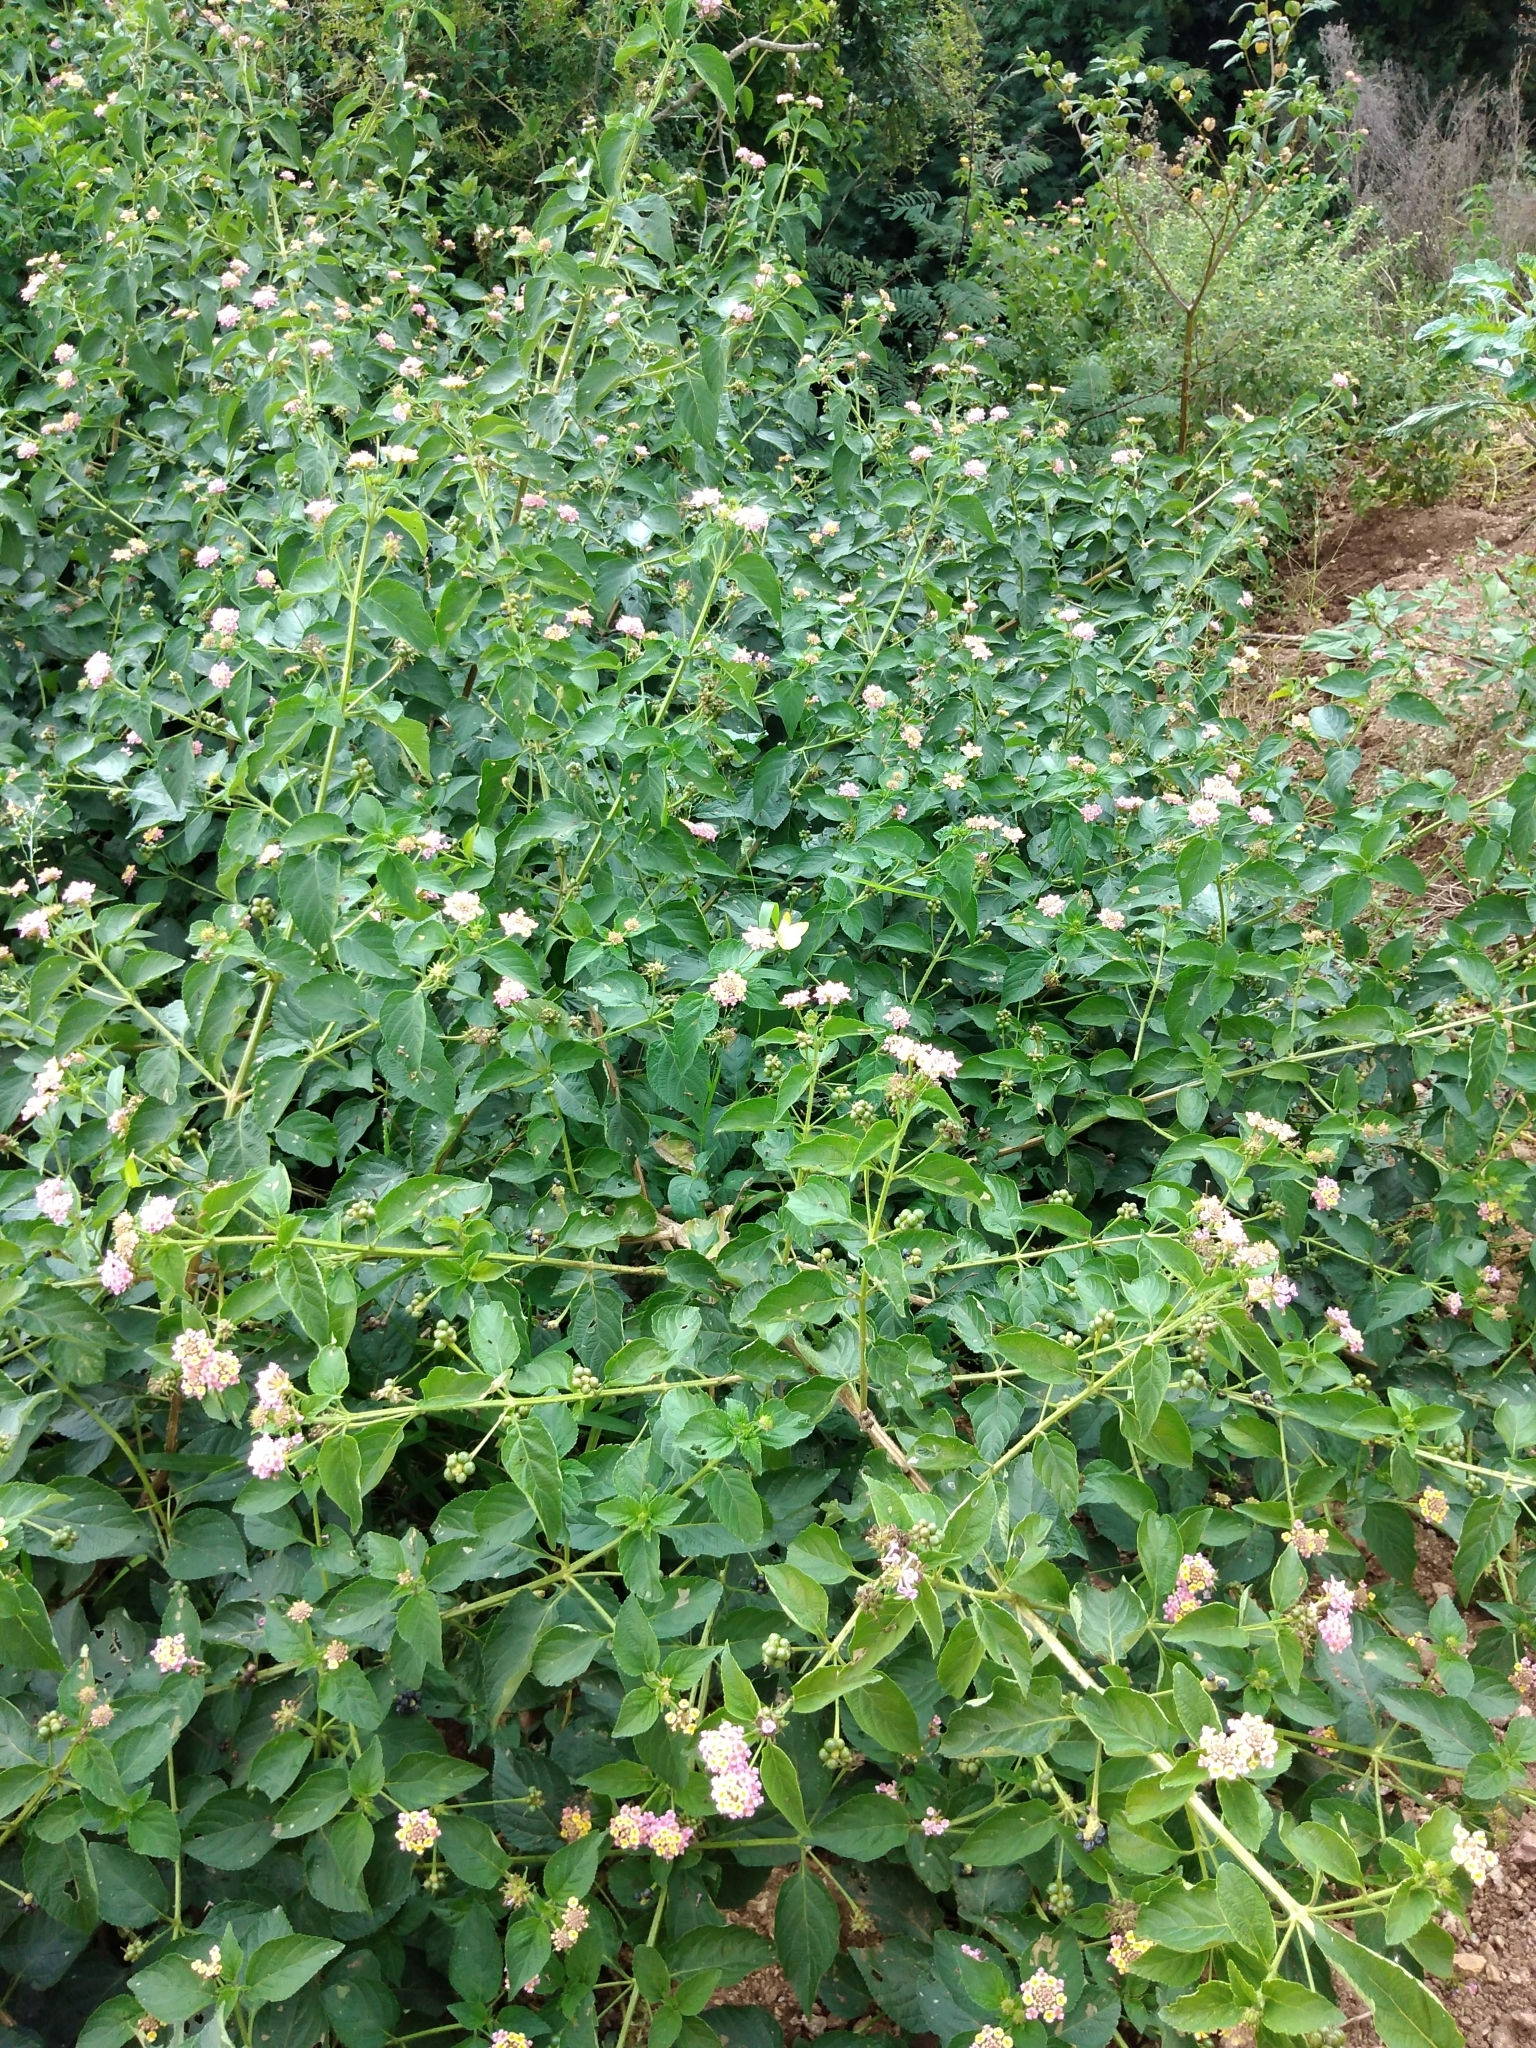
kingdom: Plantae
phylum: Tracheophyta
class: Magnoliopsida
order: Lamiales
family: Verbenaceae
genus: Lantana
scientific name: Lantana camara
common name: Lantana
